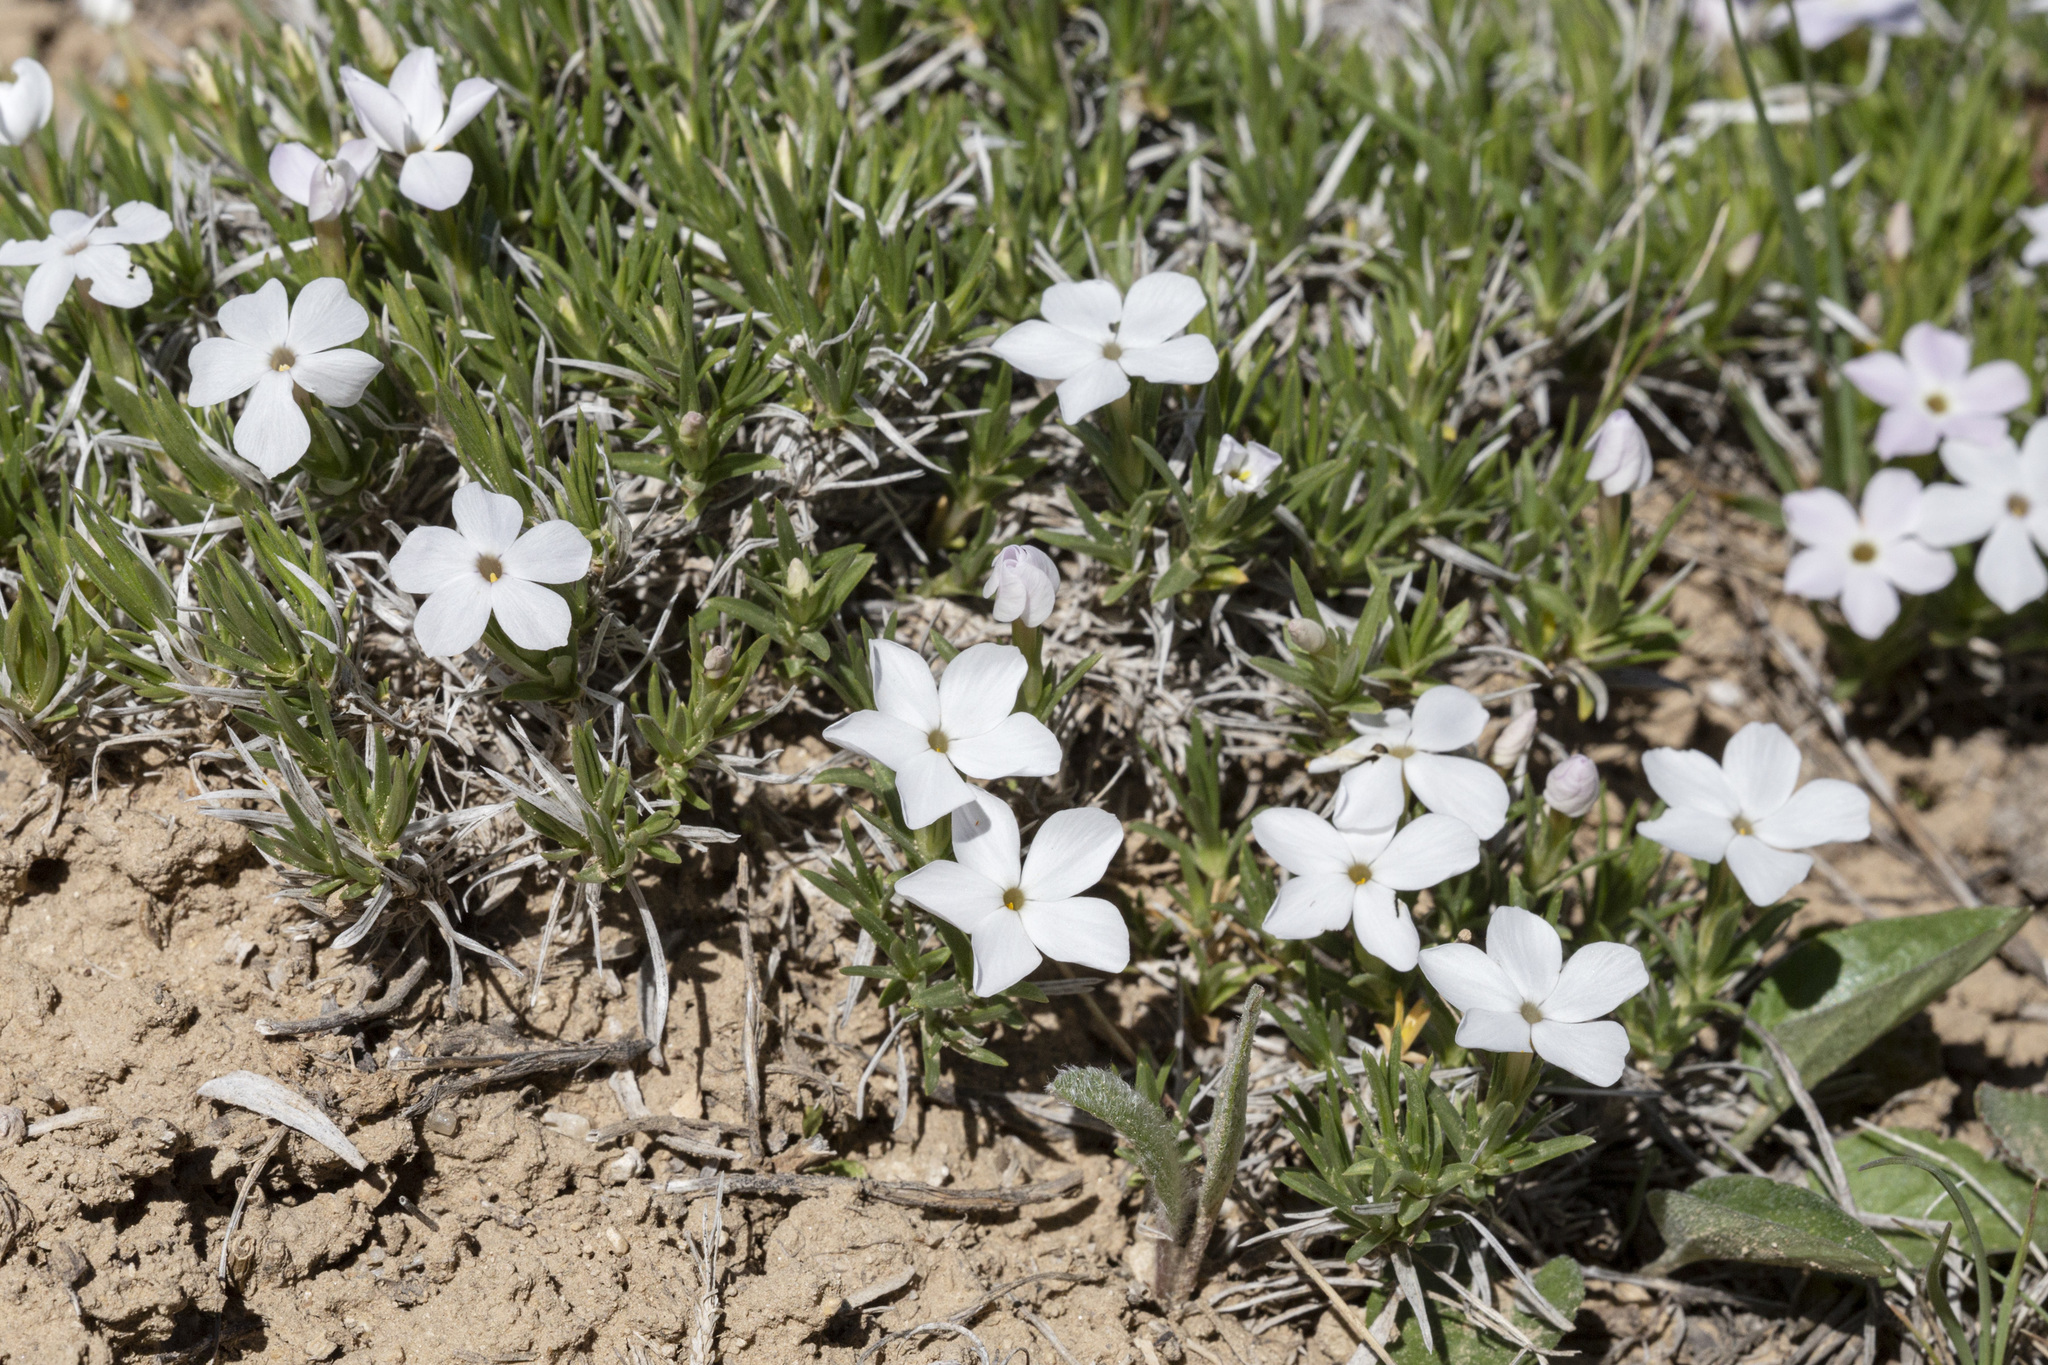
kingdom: Plantae
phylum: Tracheophyta
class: Magnoliopsida
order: Ericales
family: Polemoniaceae
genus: Phlox
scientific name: Phlox multiflora
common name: Rocky mountain phlox
